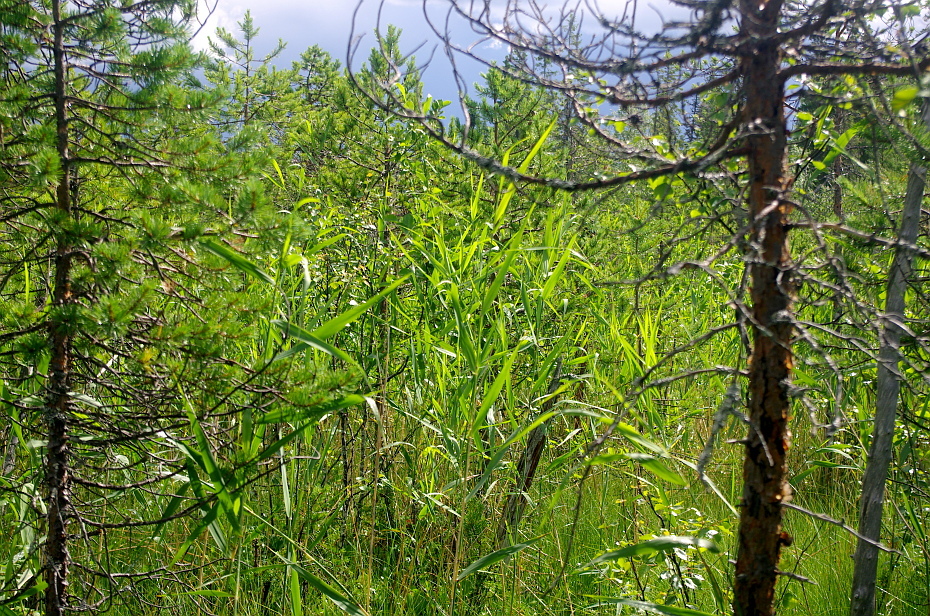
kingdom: Plantae
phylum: Tracheophyta
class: Liliopsida
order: Poales
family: Poaceae
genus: Phragmites
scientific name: Phragmites australis
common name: Common reed
